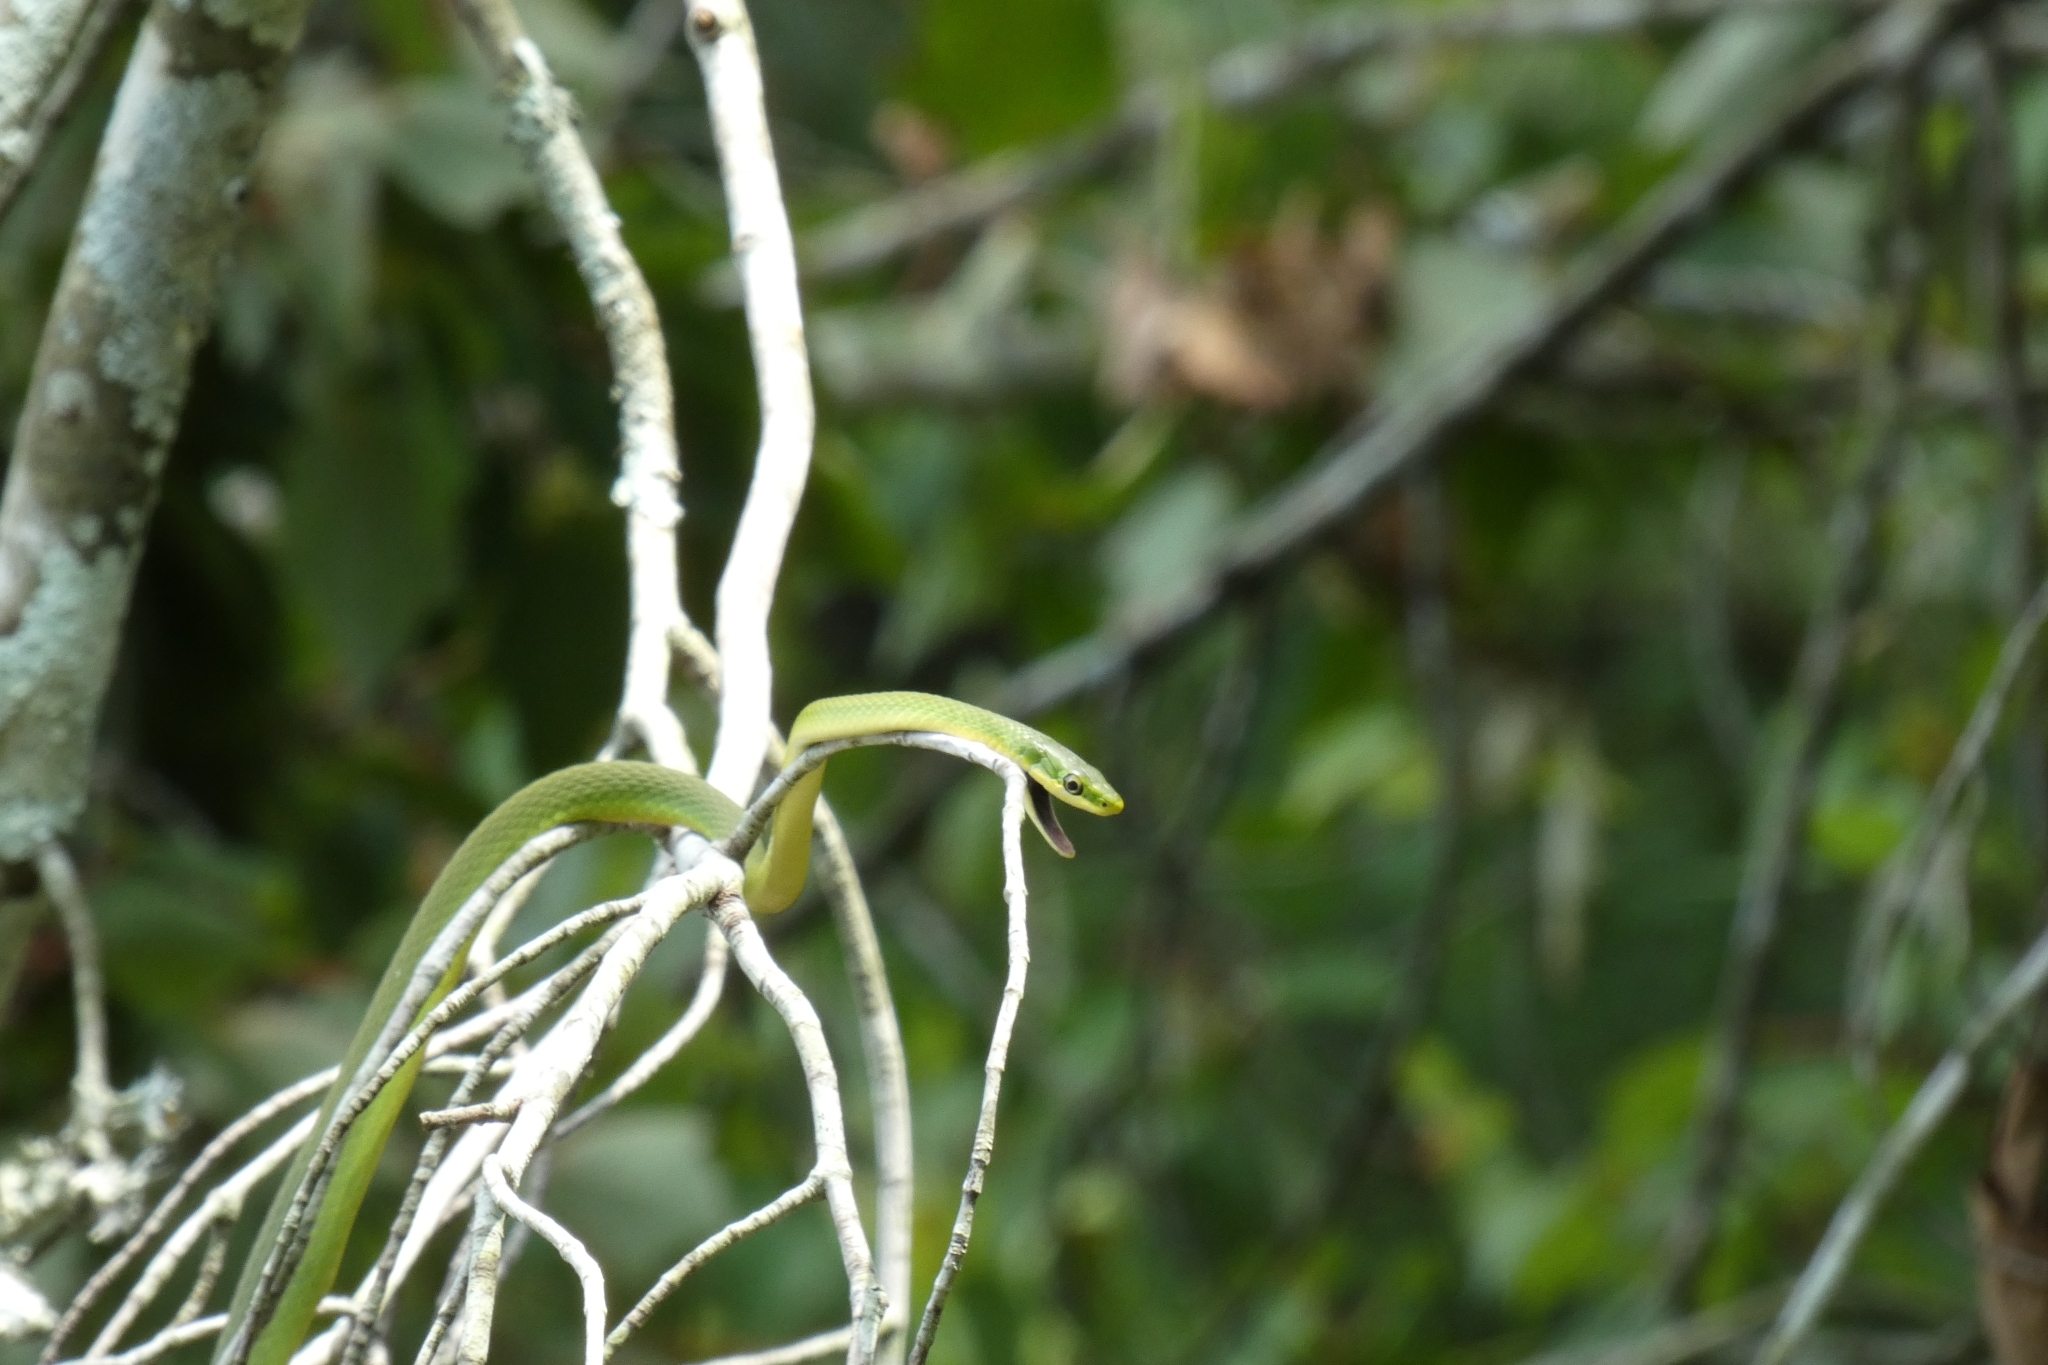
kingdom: Animalia
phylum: Chordata
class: Squamata
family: Colubridae
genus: Opheodrys
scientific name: Opheodrys aestivus
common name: Rough greensnake
